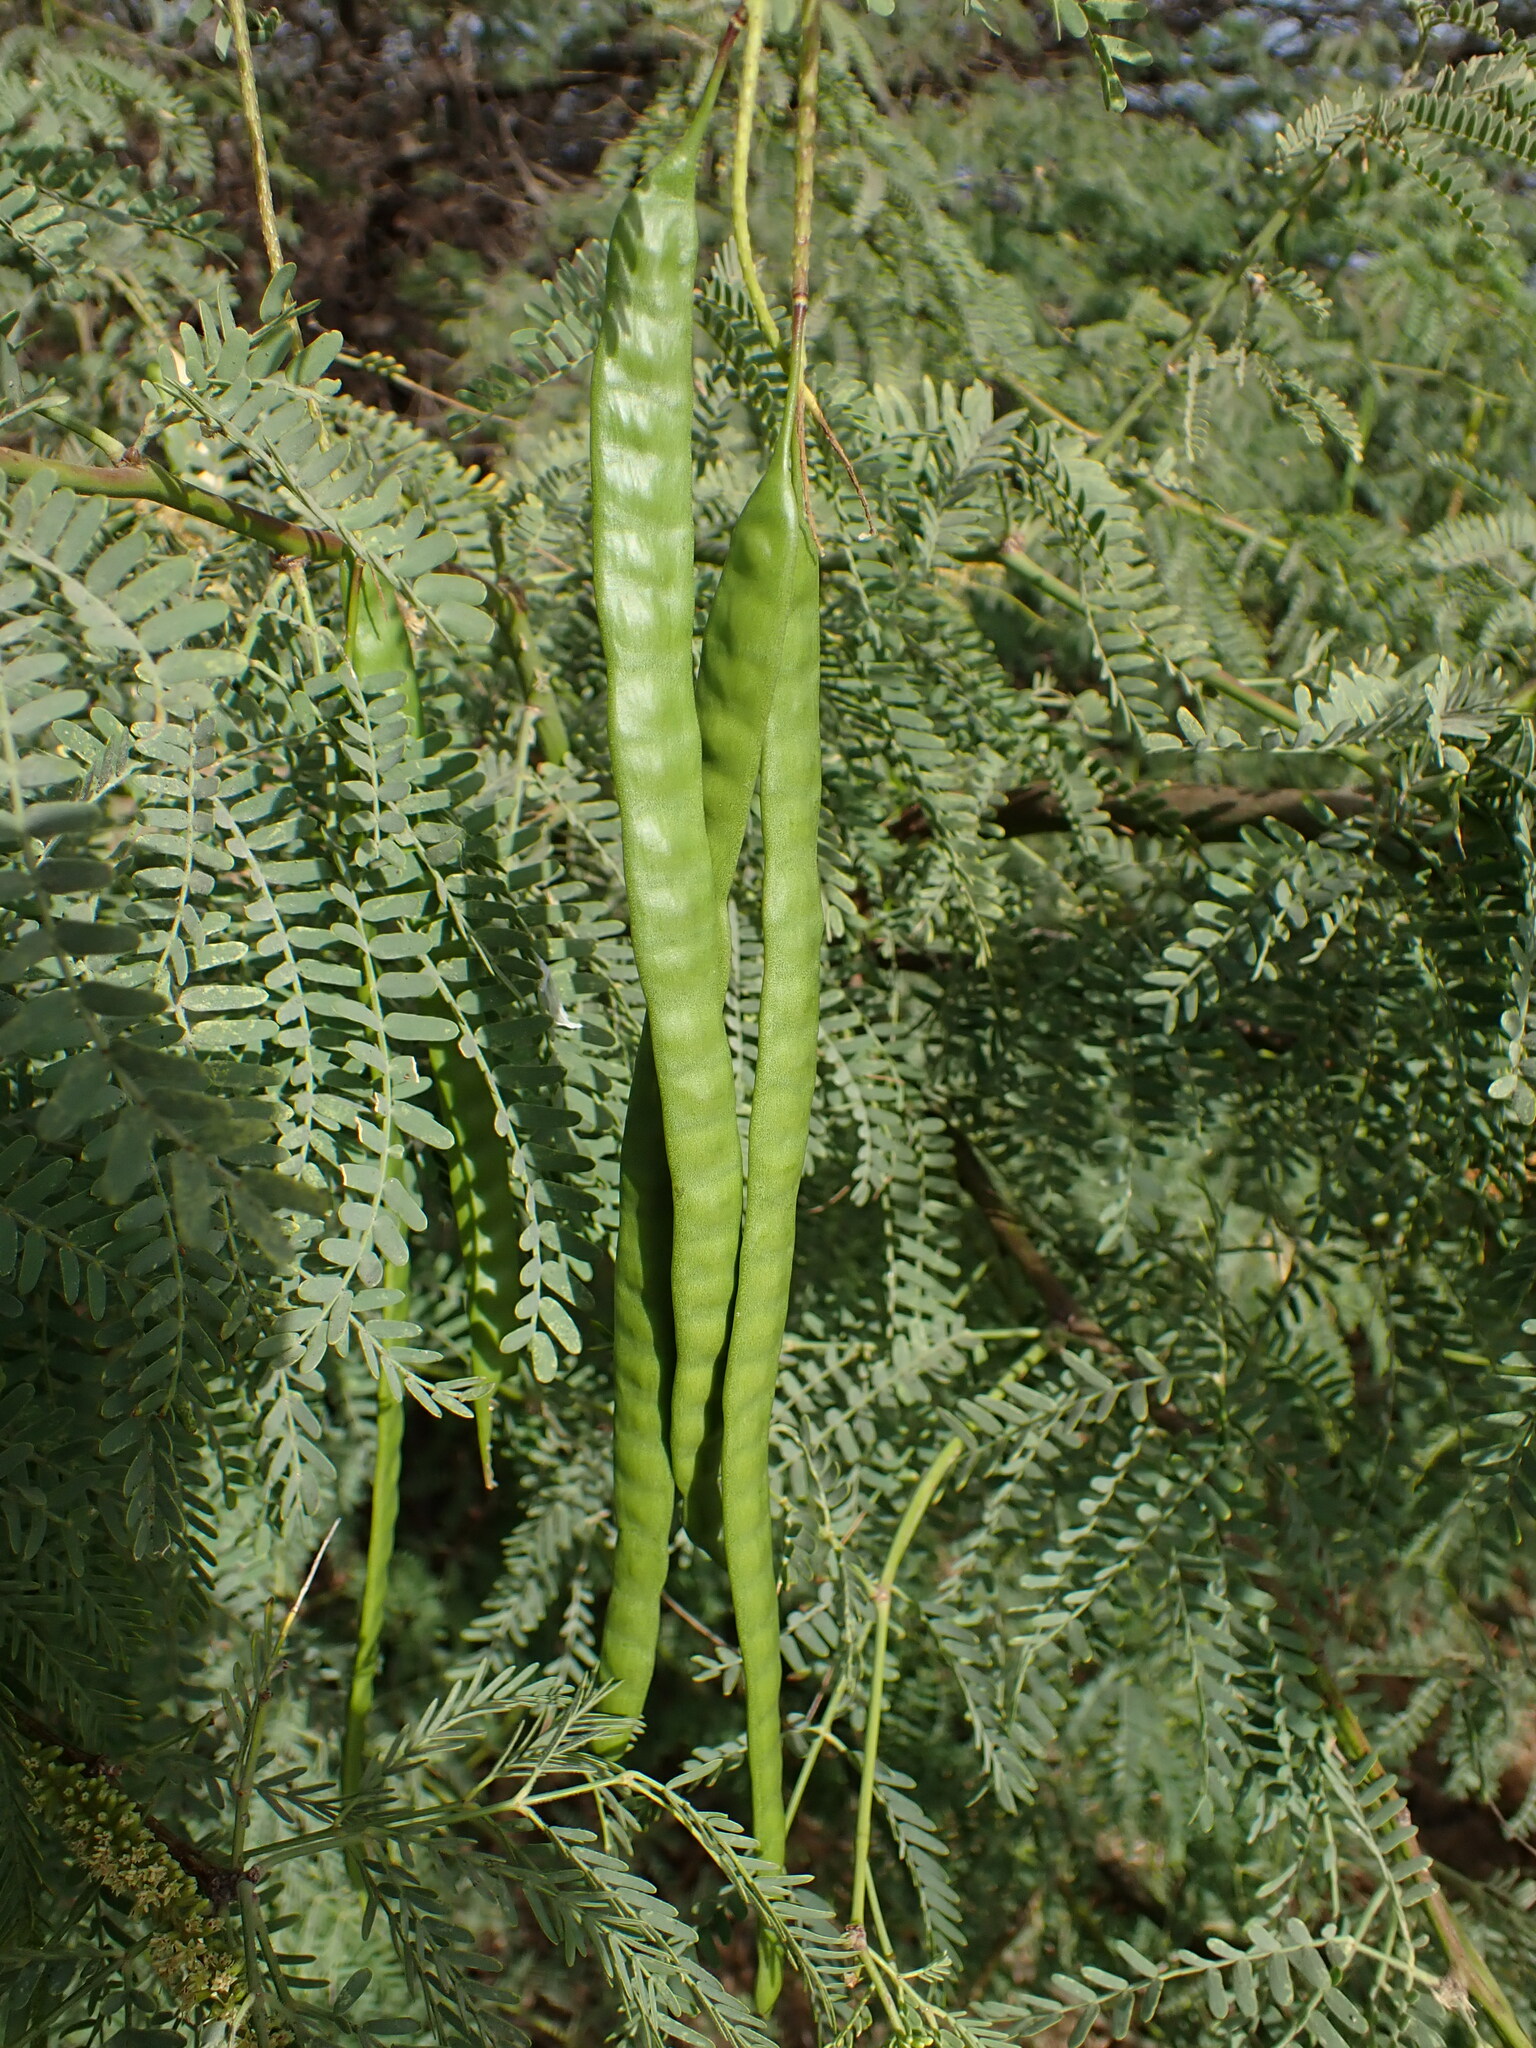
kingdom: Plantae
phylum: Tracheophyta
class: Magnoliopsida
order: Fabales
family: Fabaceae
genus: Prosopis
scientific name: Prosopis juliflora
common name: Mesquite
